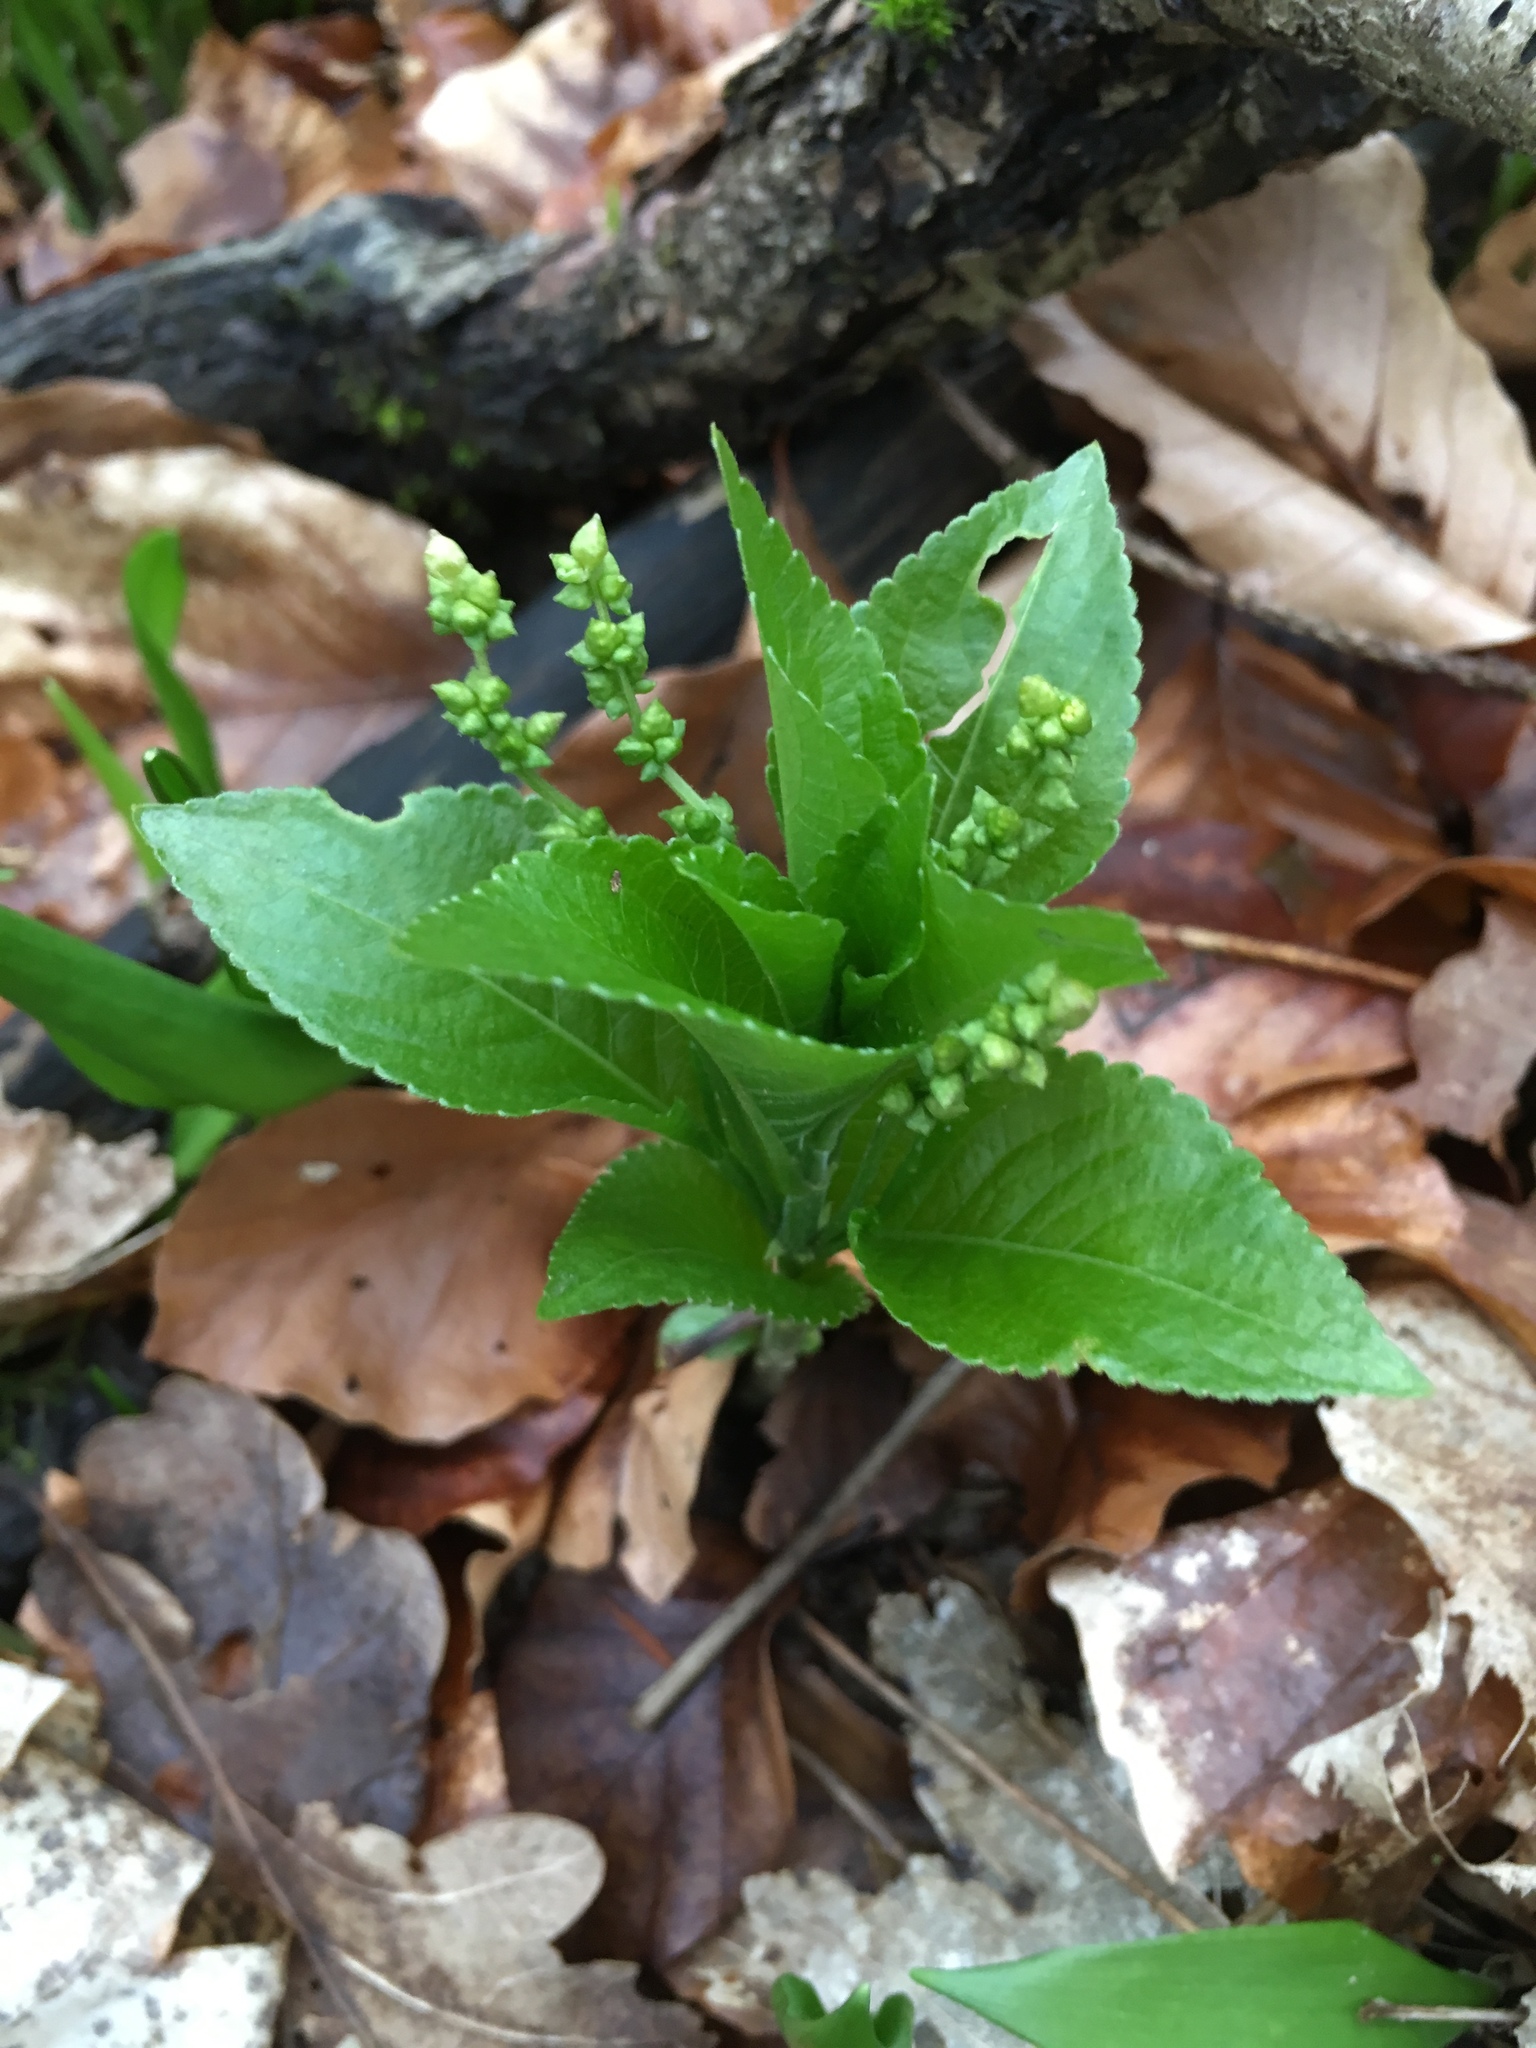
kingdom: Plantae
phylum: Tracheophyta
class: Magnoliopsida
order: Malpighiales
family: Euphorbiaceae
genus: Mercurialis
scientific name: Mercurialis perennis
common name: Dog mercury
